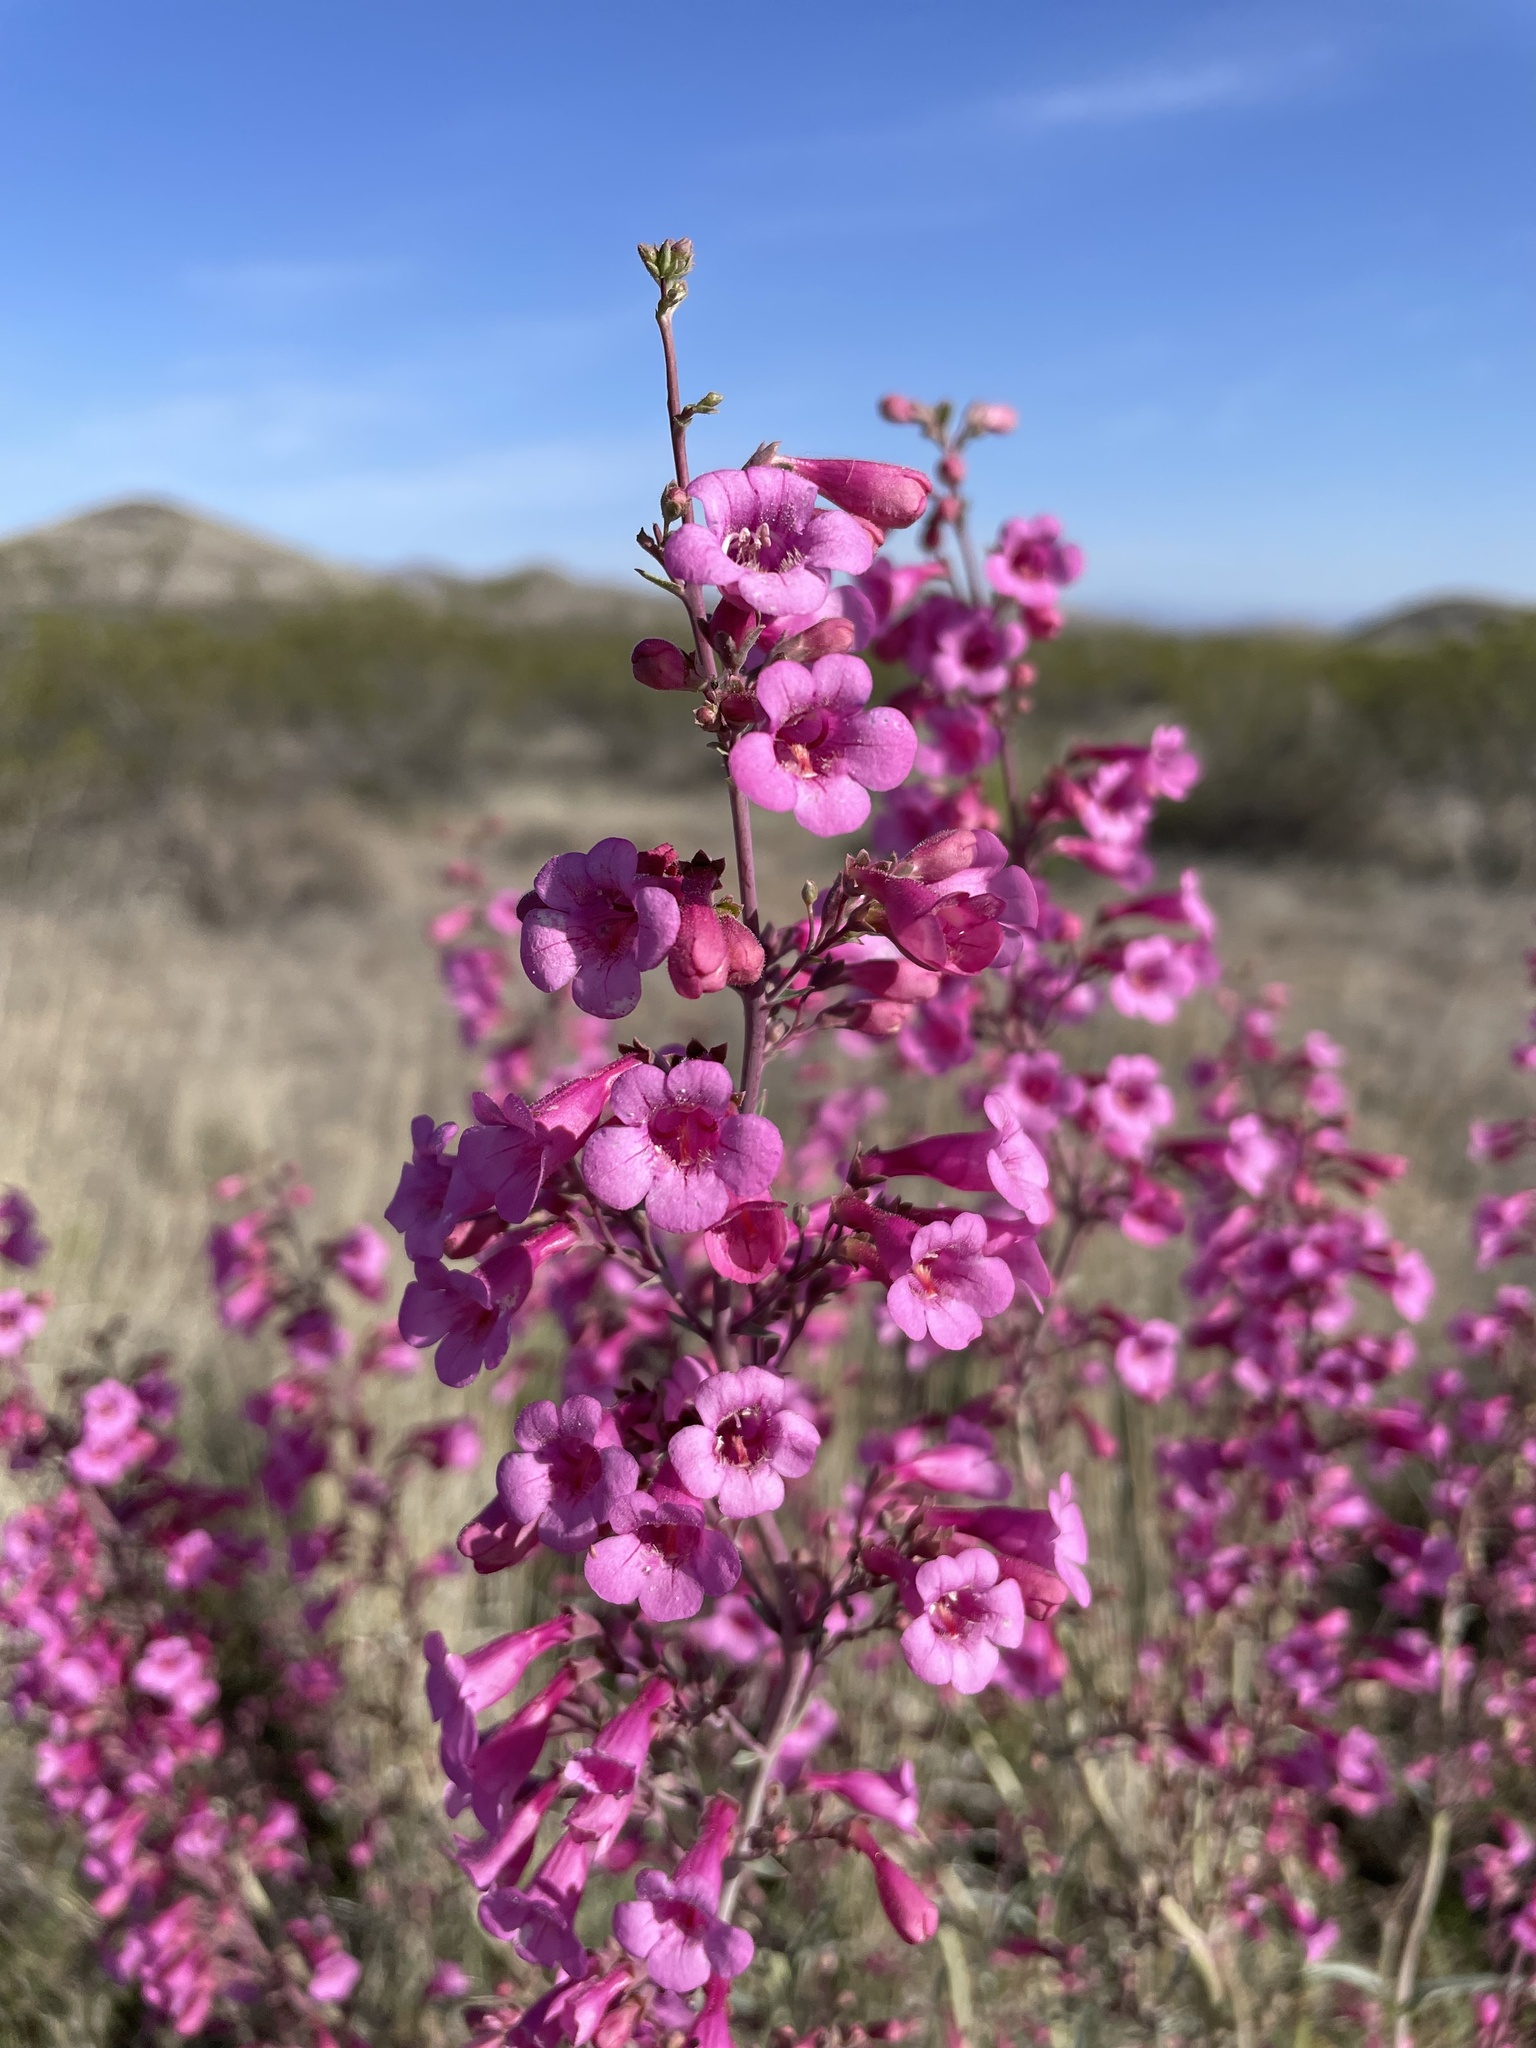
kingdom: Plantae
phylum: Tracheophyta
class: Magnoliopsida
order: Lamiales
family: Plantaginaceae
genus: Penstemon
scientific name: Penstemon parryi
